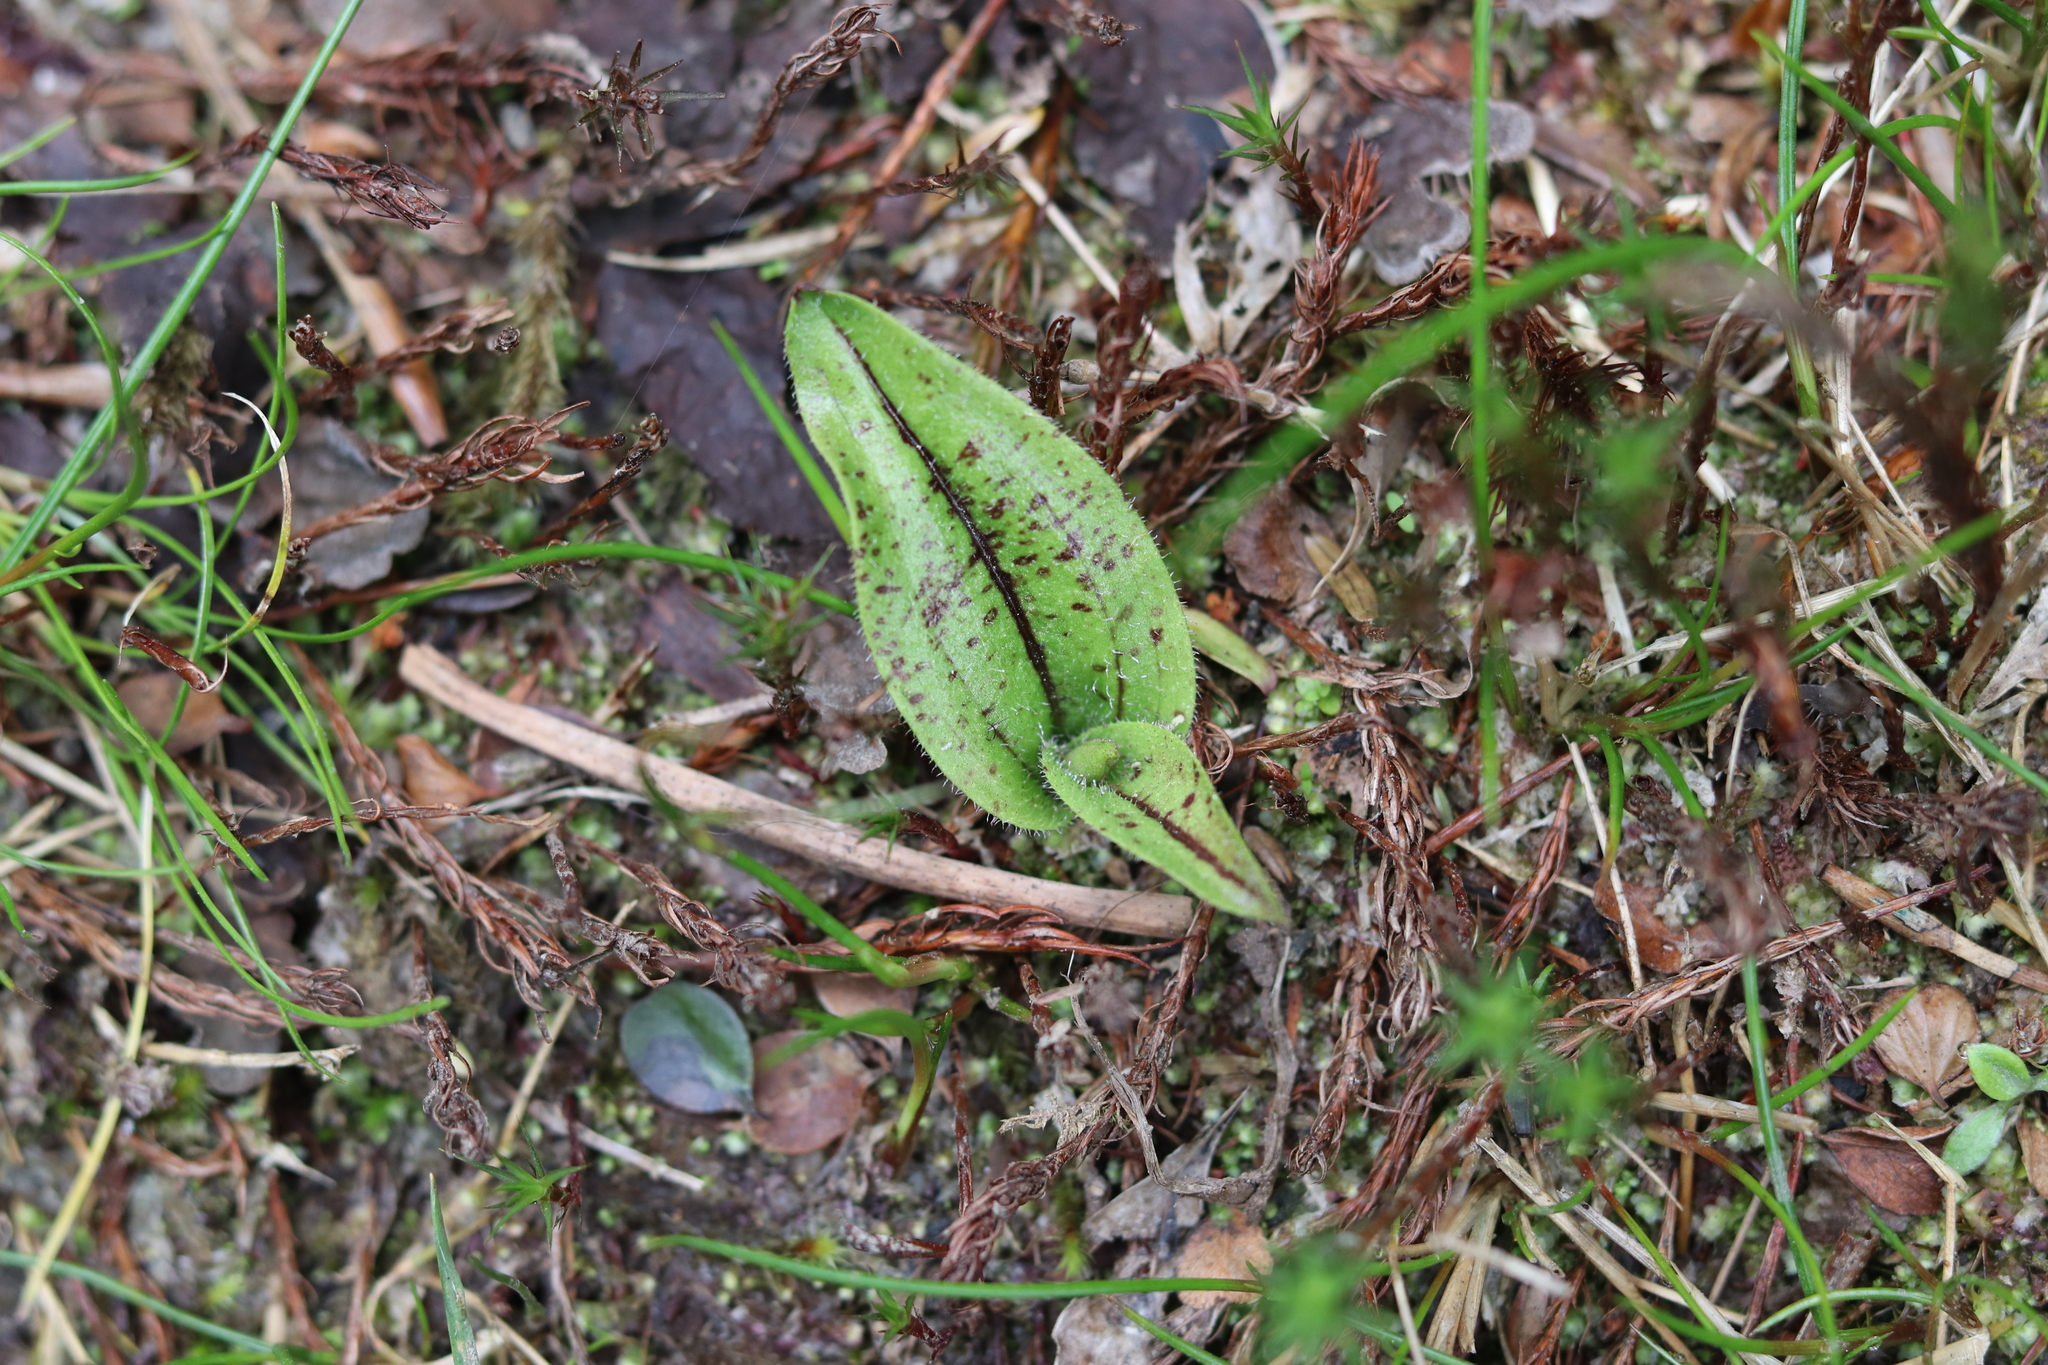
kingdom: Plantae
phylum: Tracheophyta
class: Liliopsida
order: Asparagales
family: Orchidaceae
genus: Aporostylis
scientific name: Aporostylis bifolia
